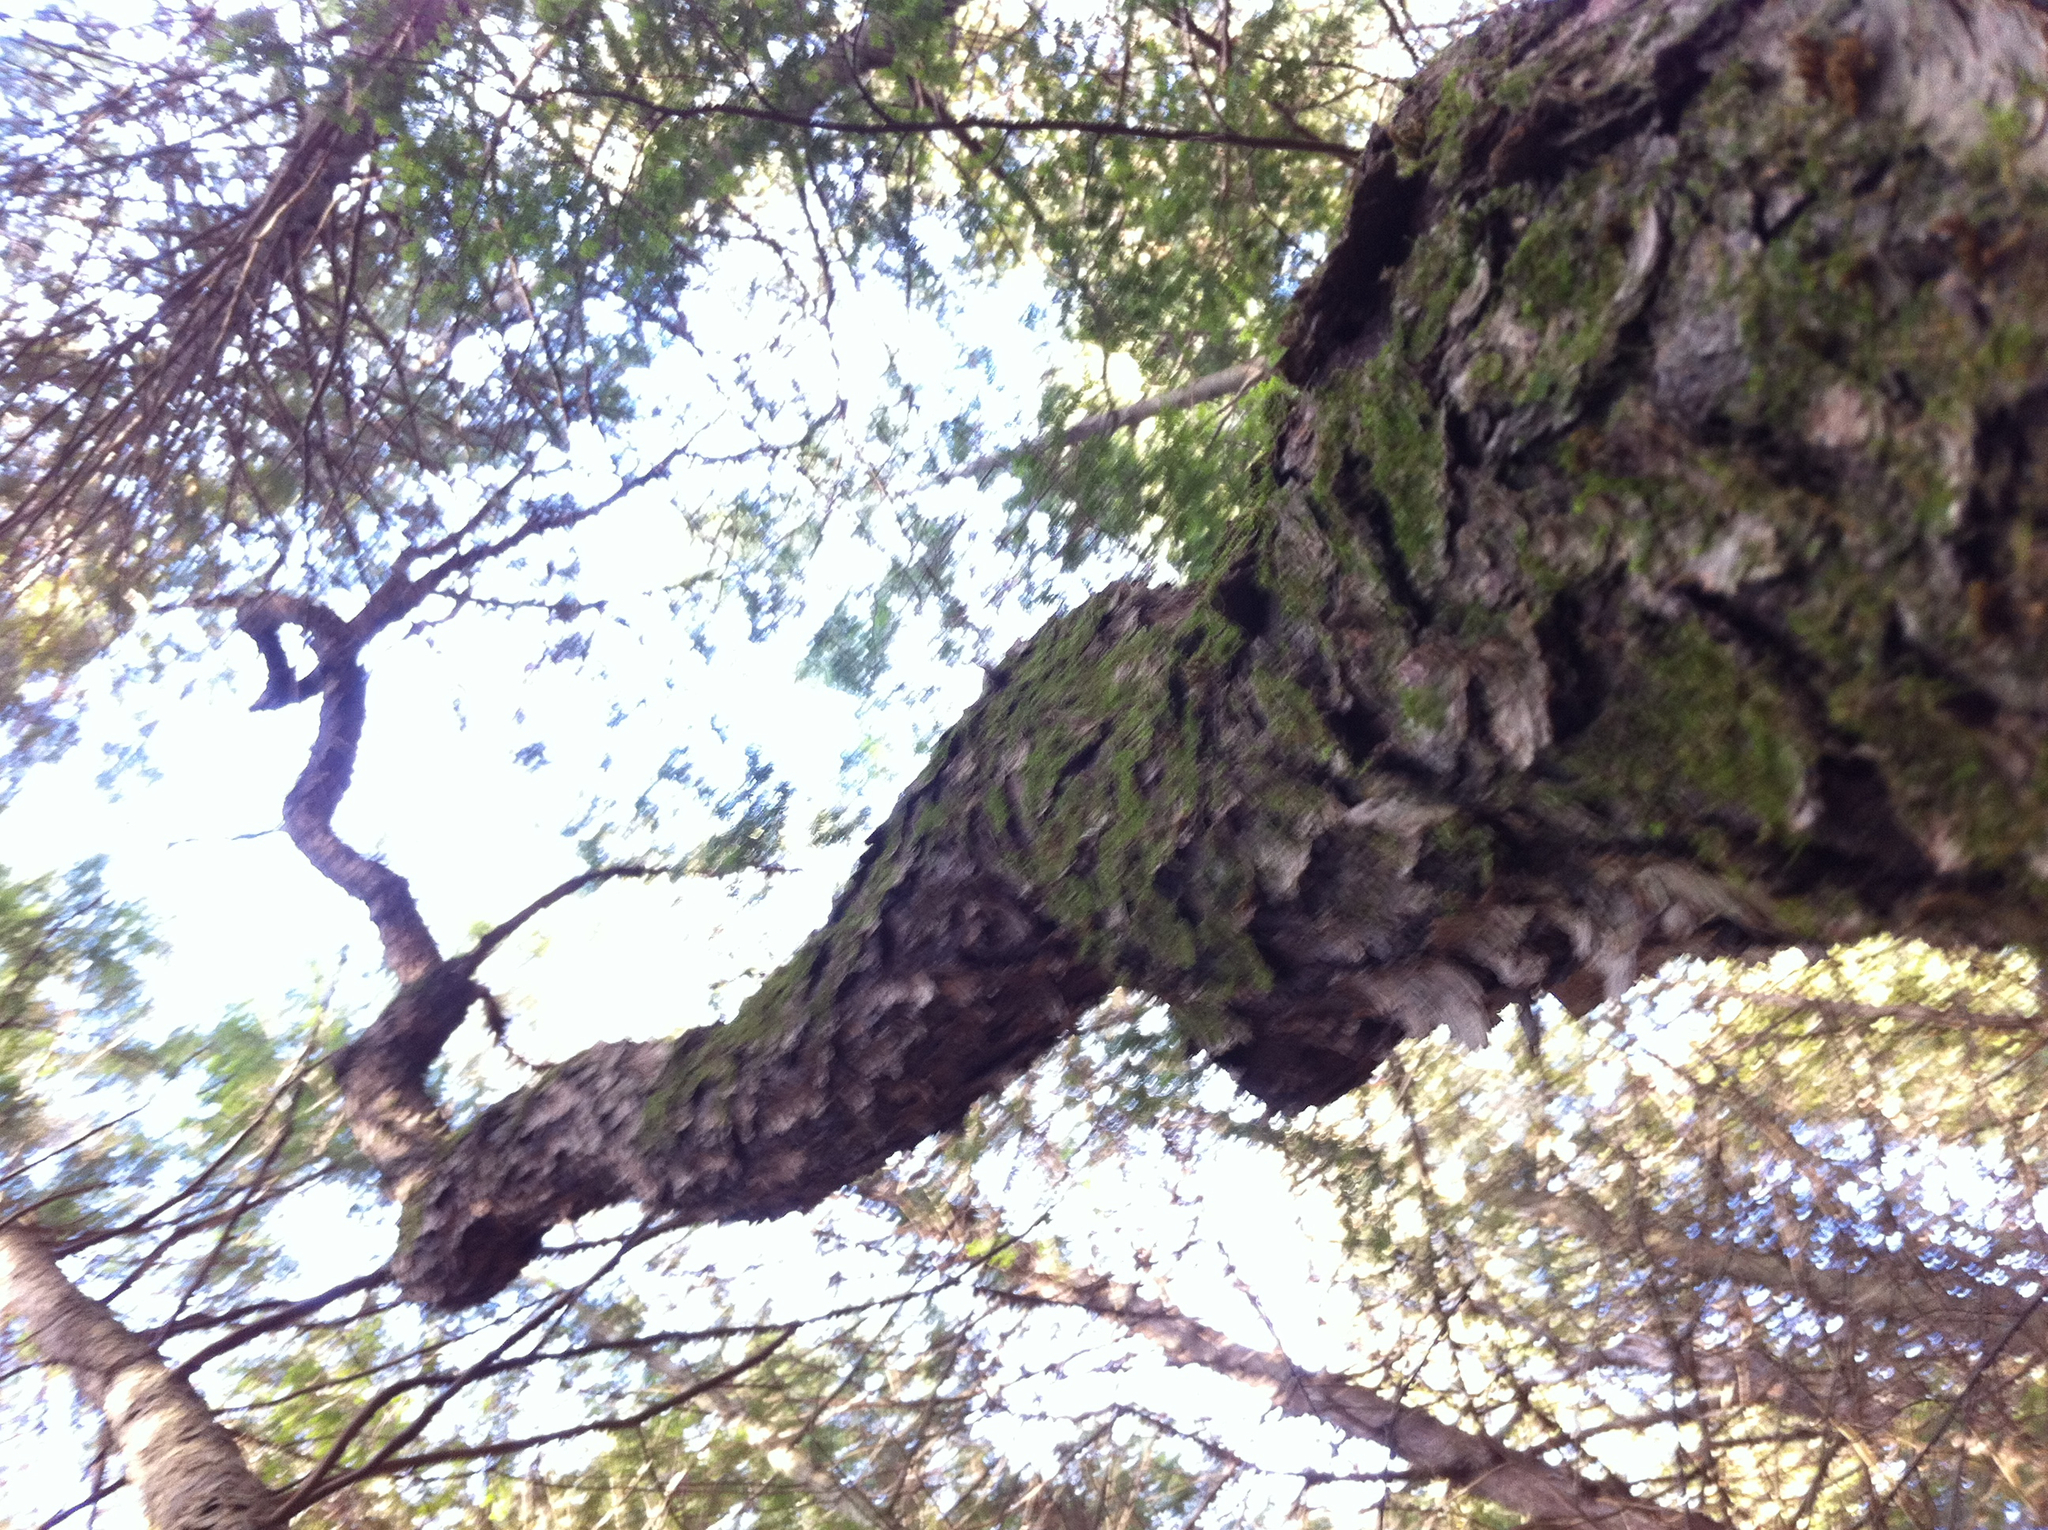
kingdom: Plantae
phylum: Tracheophyta
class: Magnoliopsida
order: Rosales
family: Rosaceae
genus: Prunus
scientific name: Prunus serotina
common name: Black cherry
